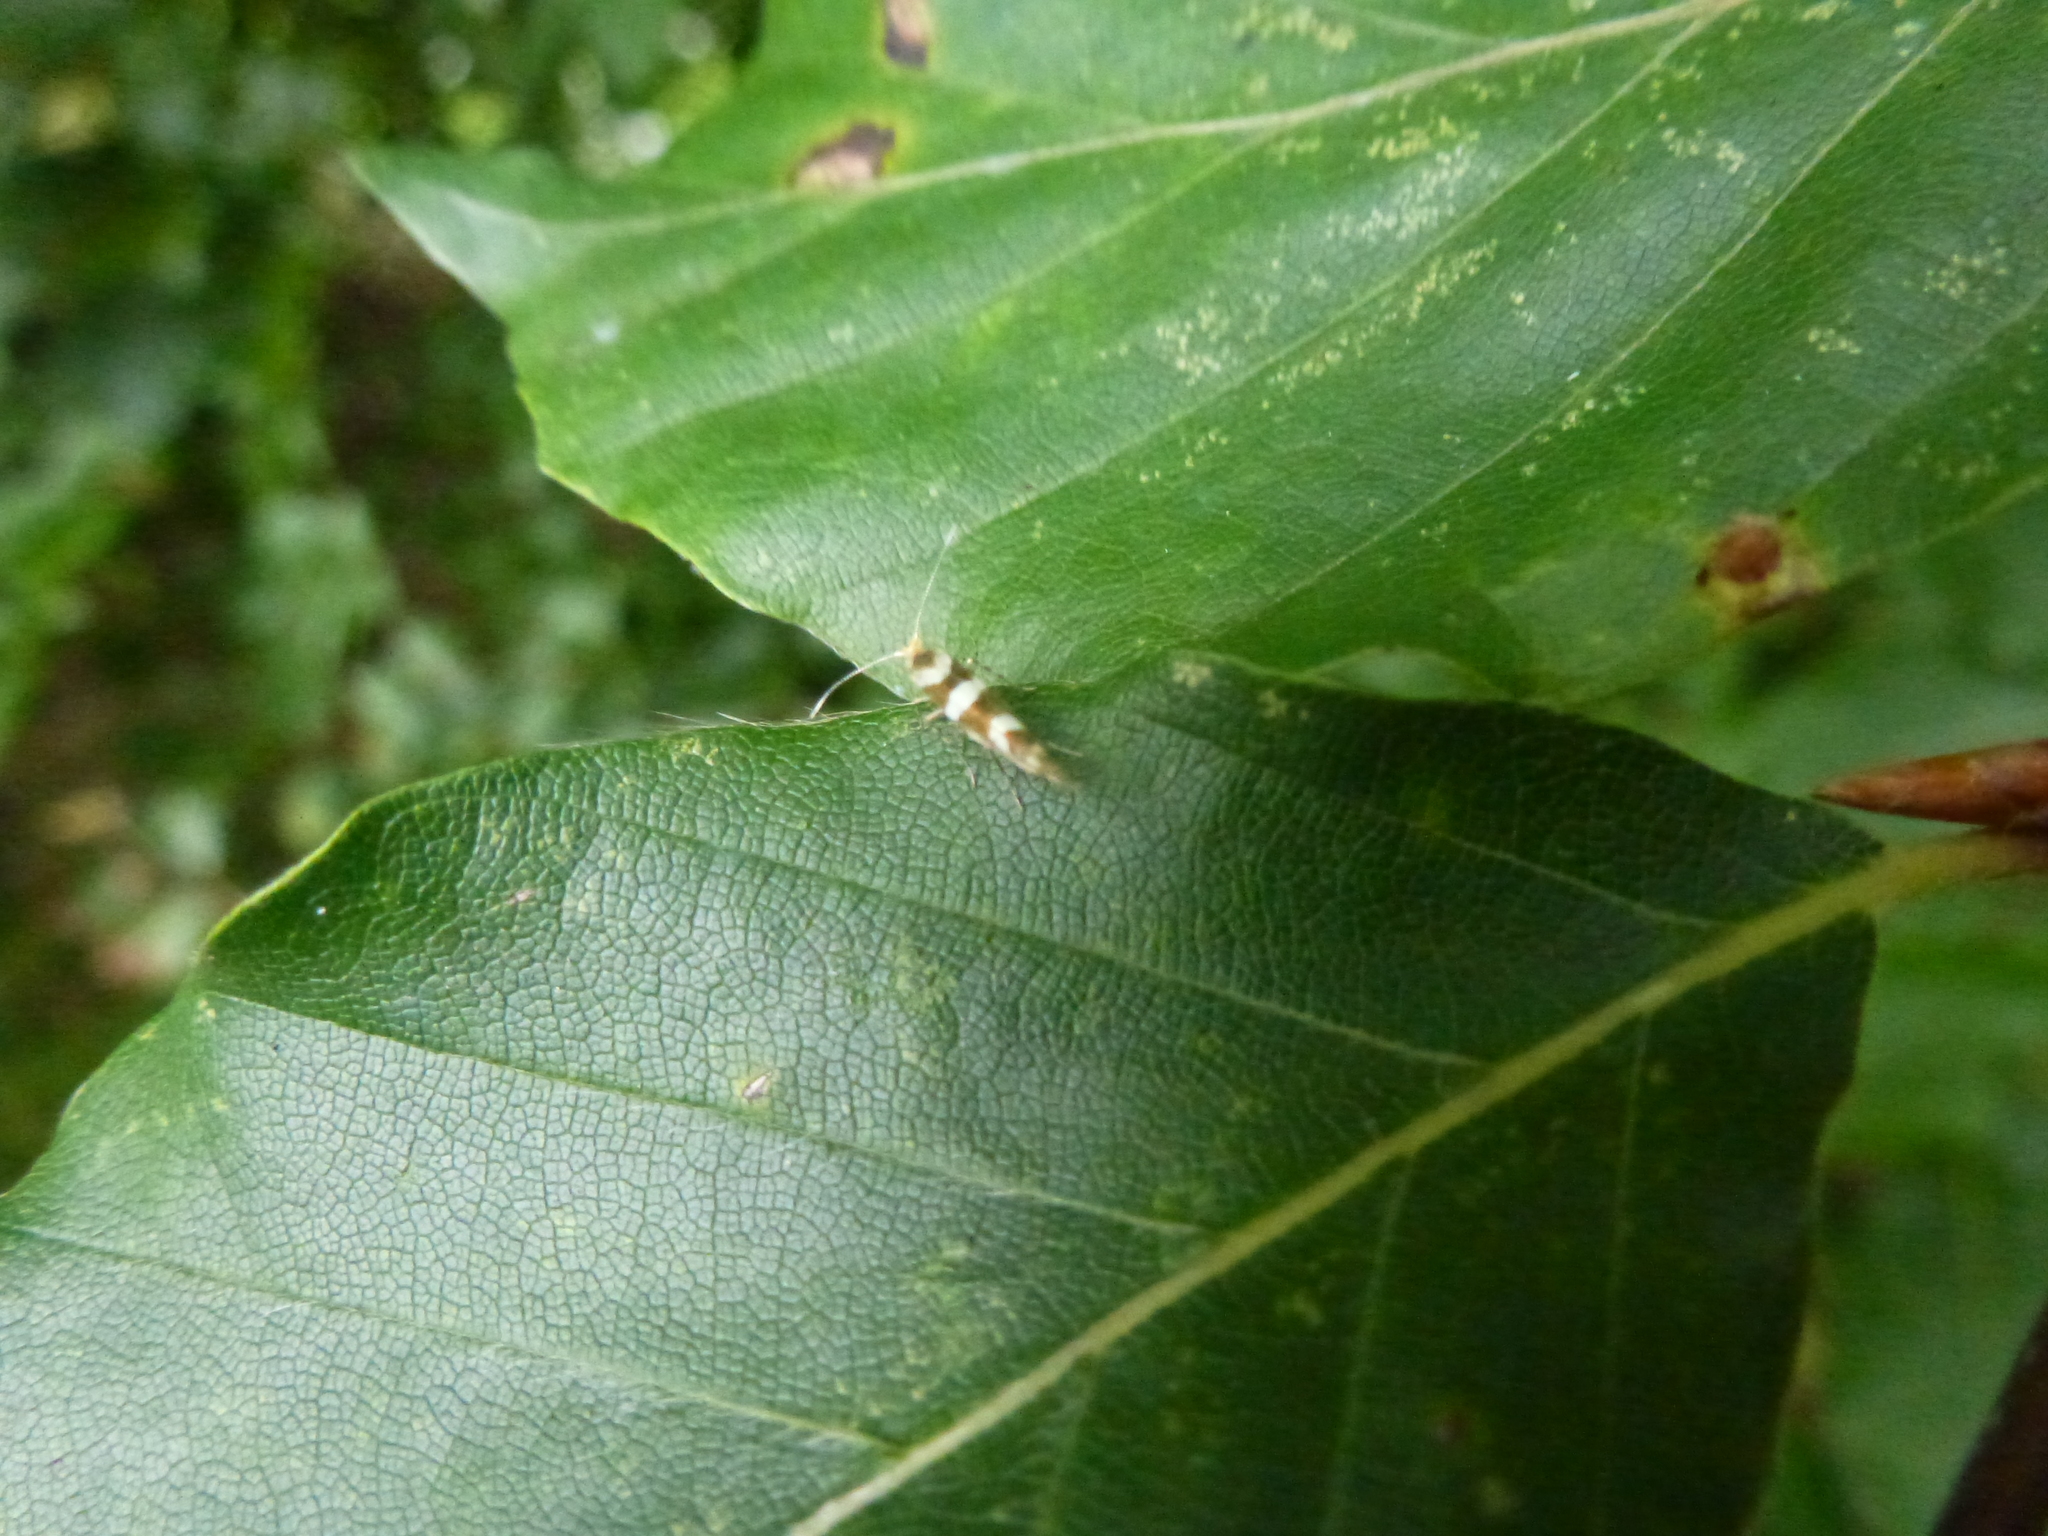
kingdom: Animalia
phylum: Arthropoda
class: Insecta
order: Lepidoptera
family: Argyresthiidae
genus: Argyresthia
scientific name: Argyresthia brockeella
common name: Gold-ribbon argent
